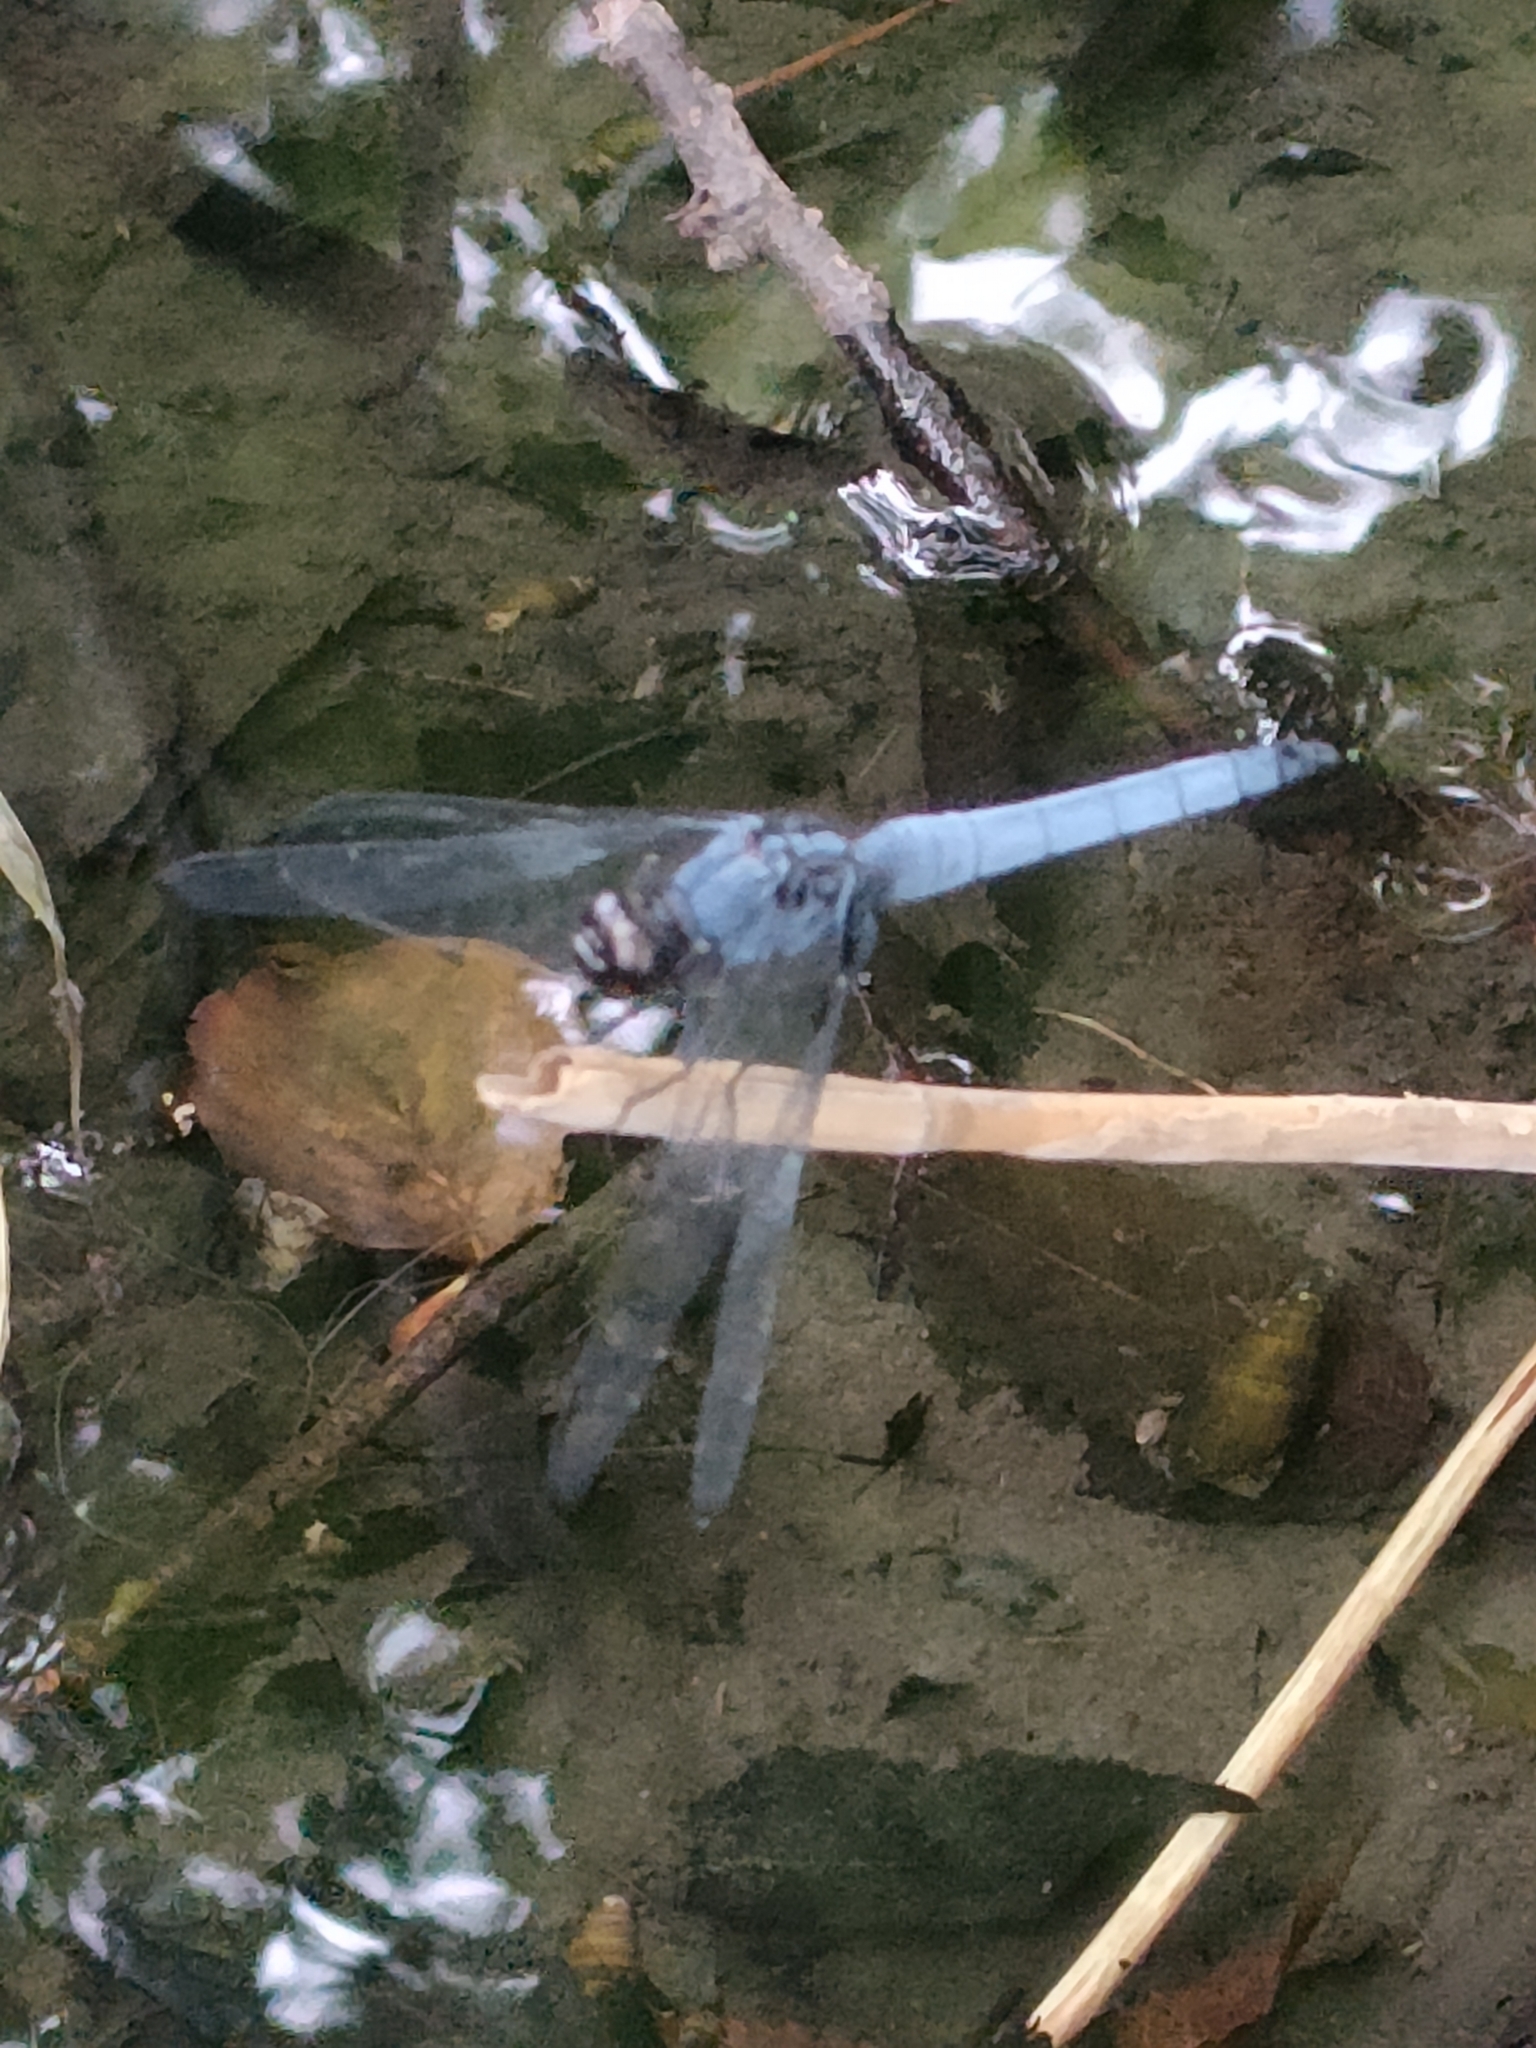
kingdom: Animalia
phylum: Arthropoda
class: Insecta
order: Odonata
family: Libellulidae
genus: Orthetrum
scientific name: Orthetrum melania
